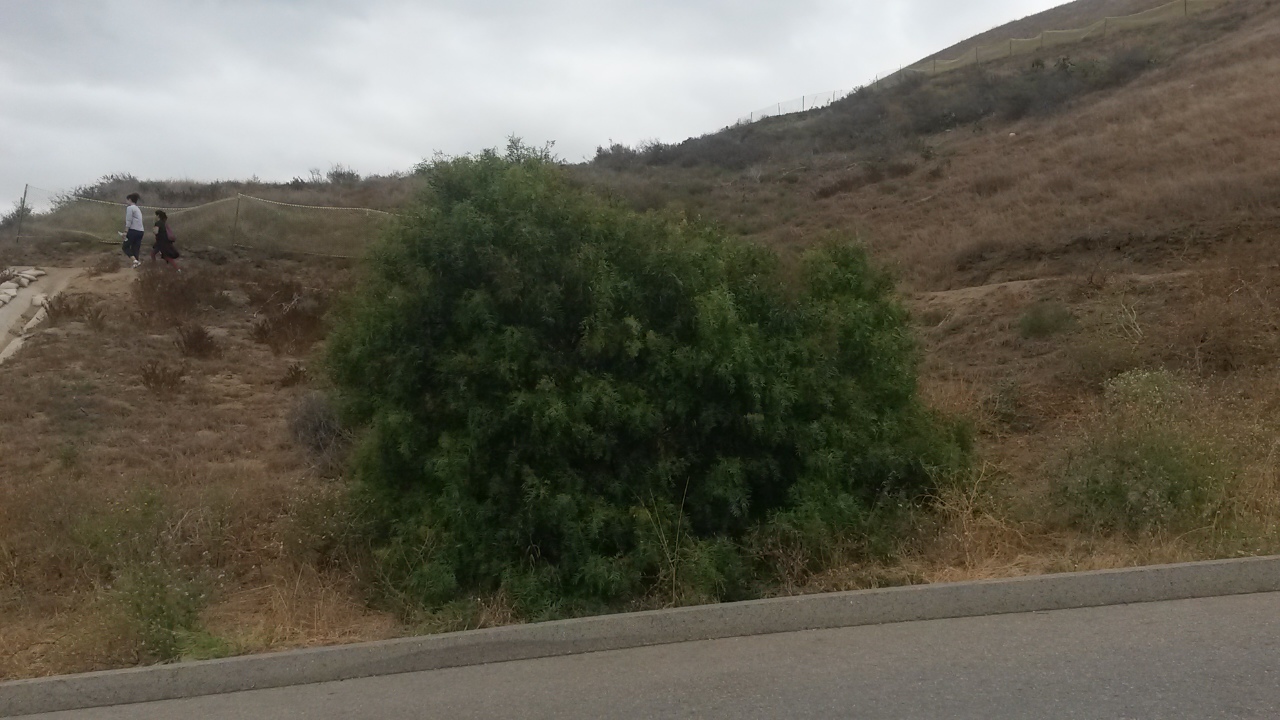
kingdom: Plantae
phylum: Tracheophyta
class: Magnoliopsida
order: Sapindales
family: Anacardiaceae
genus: Schinus
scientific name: Schinus molle
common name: Peruvian peppertree
